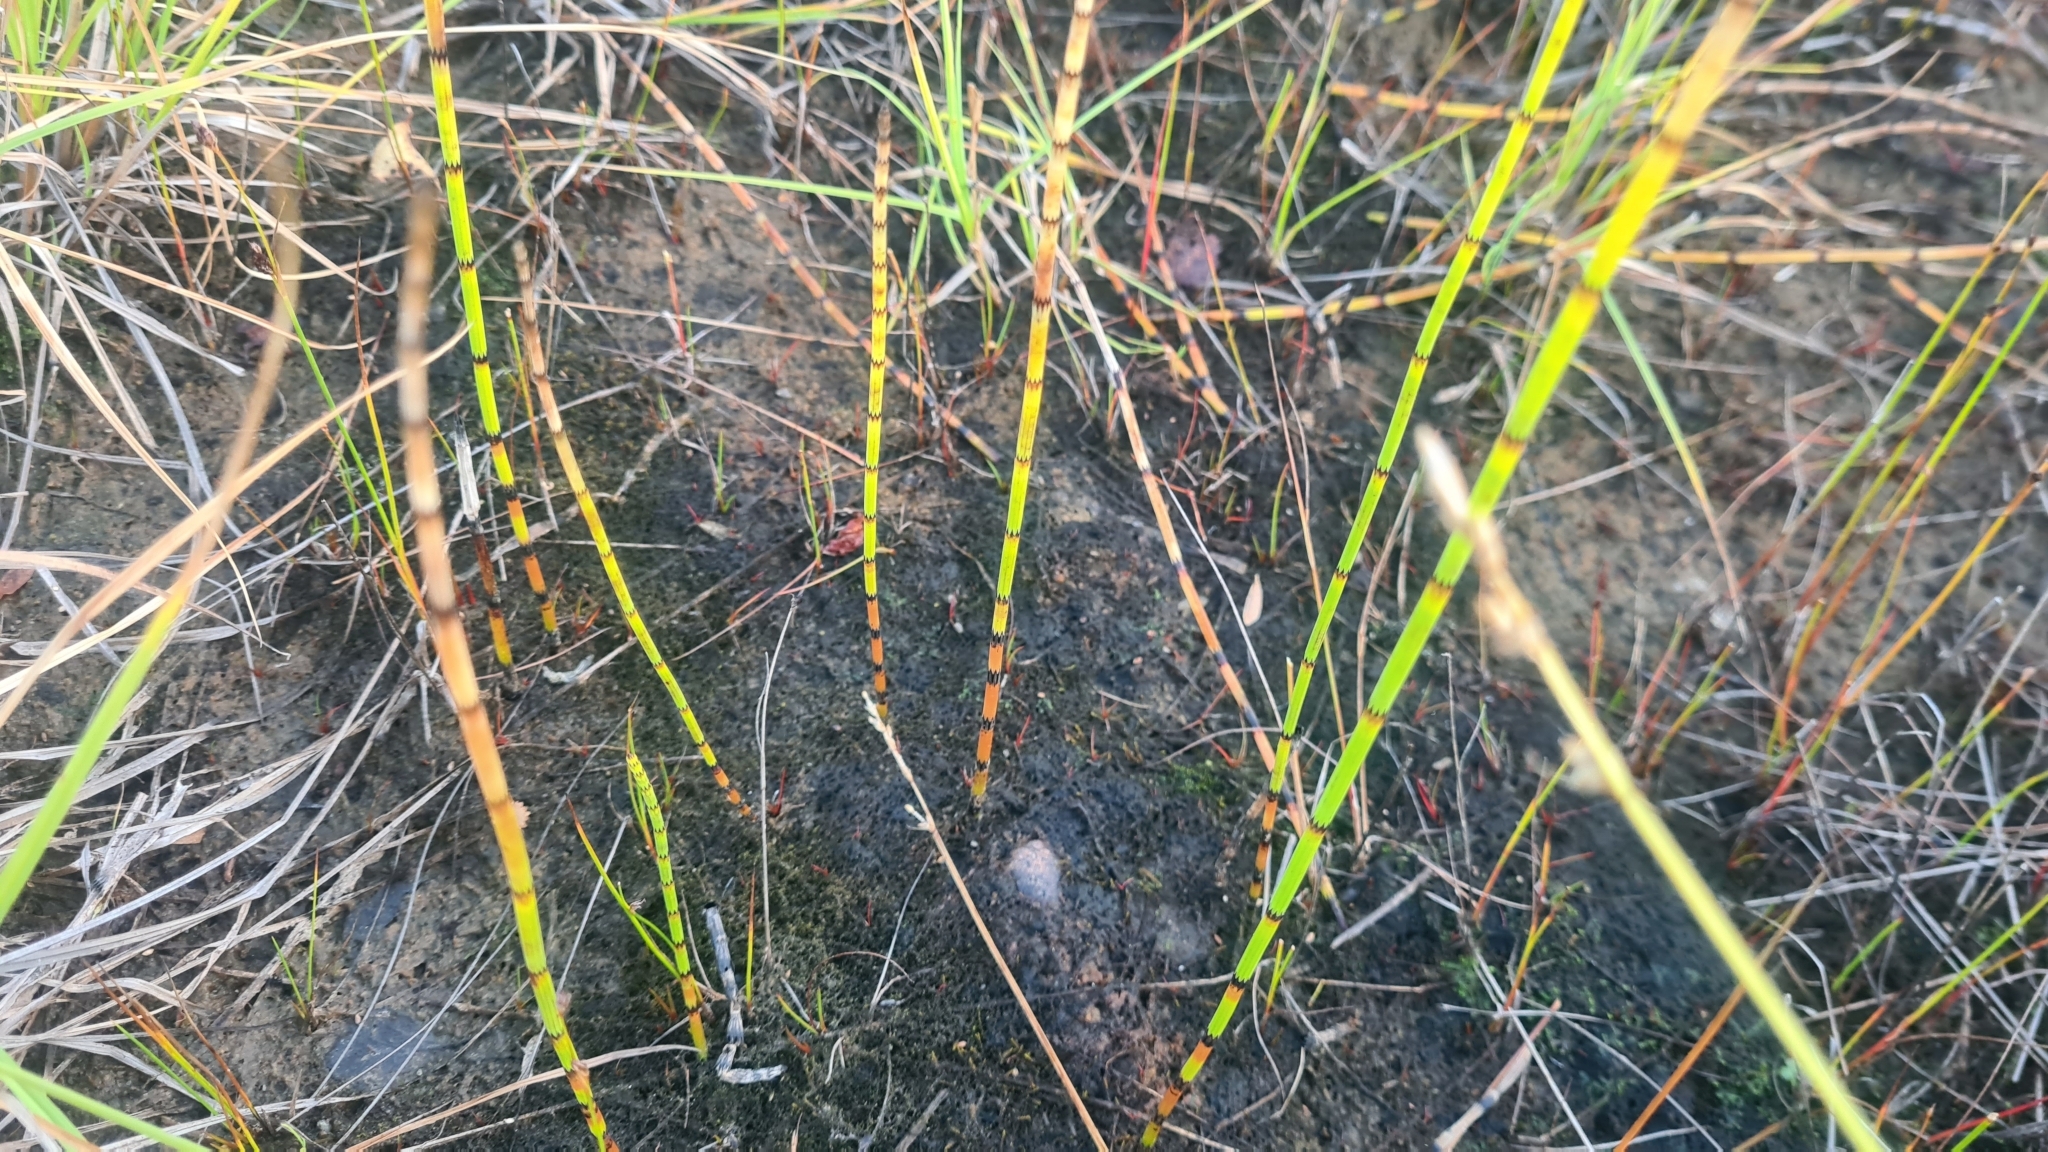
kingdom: Plantae
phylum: Tracheophyta
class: Polypodiopsida
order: Equisetales
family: Equisetaceae
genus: Equisetum
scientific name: Equisetum fluviatile
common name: Water horsetail
